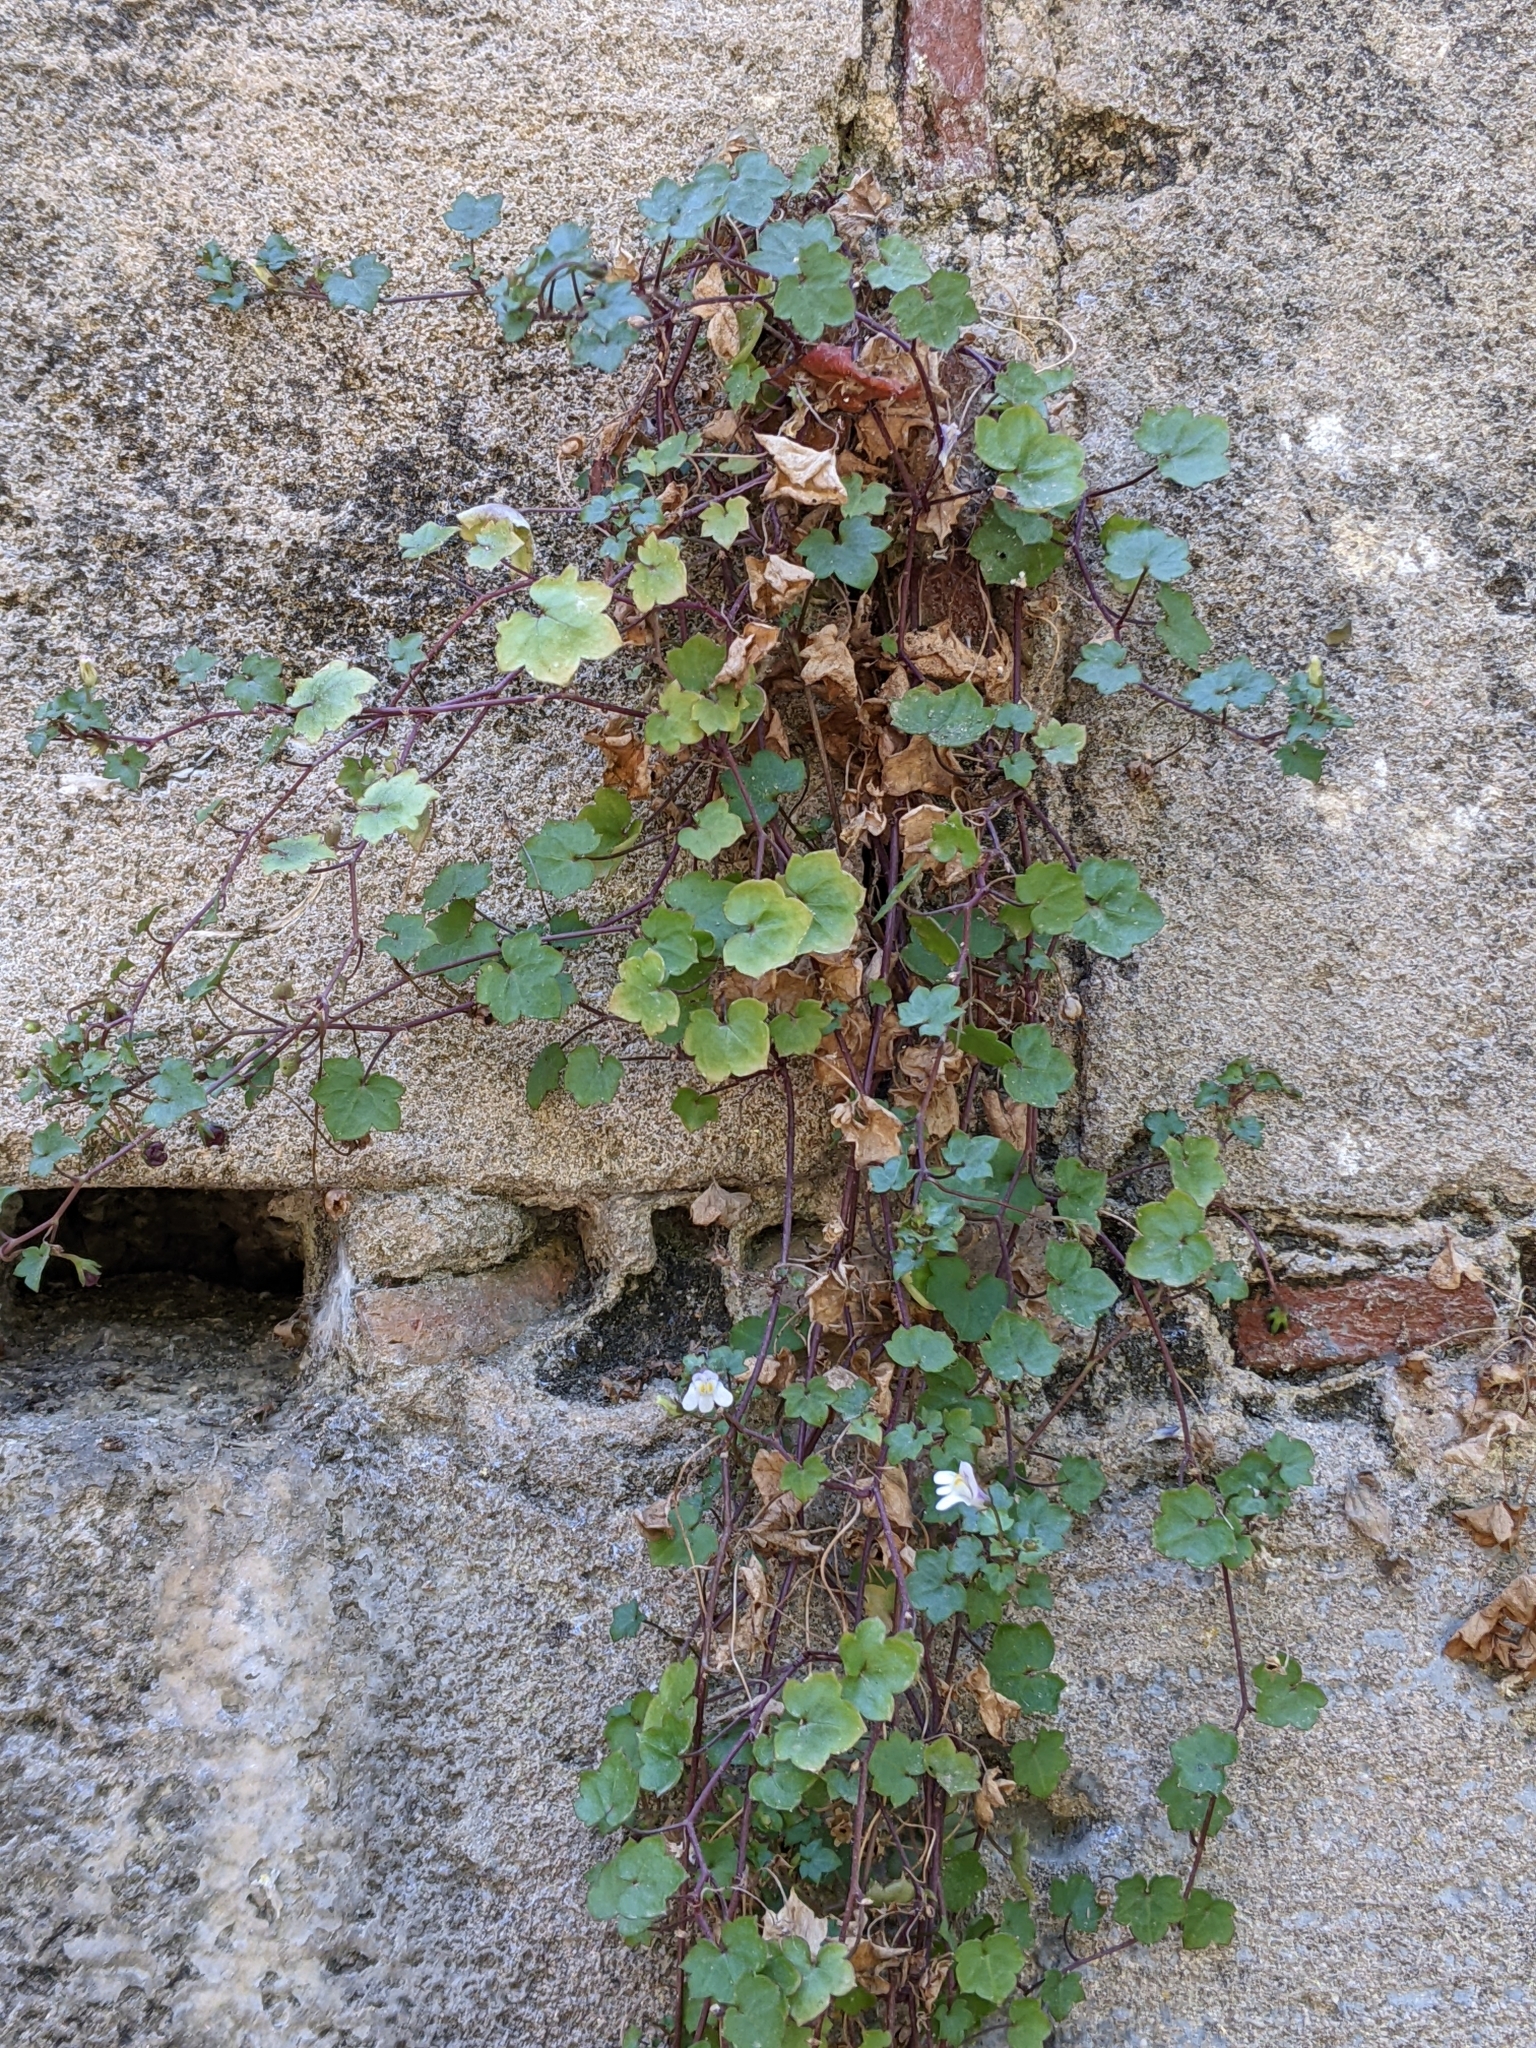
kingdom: Plantae
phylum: Tracheophyta
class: Magnoliopsida
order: Lamiales
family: Plantaginaceae
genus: Cymbalaria
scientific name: Cymbalaria muralis
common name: Ivy-leaved toadflax
